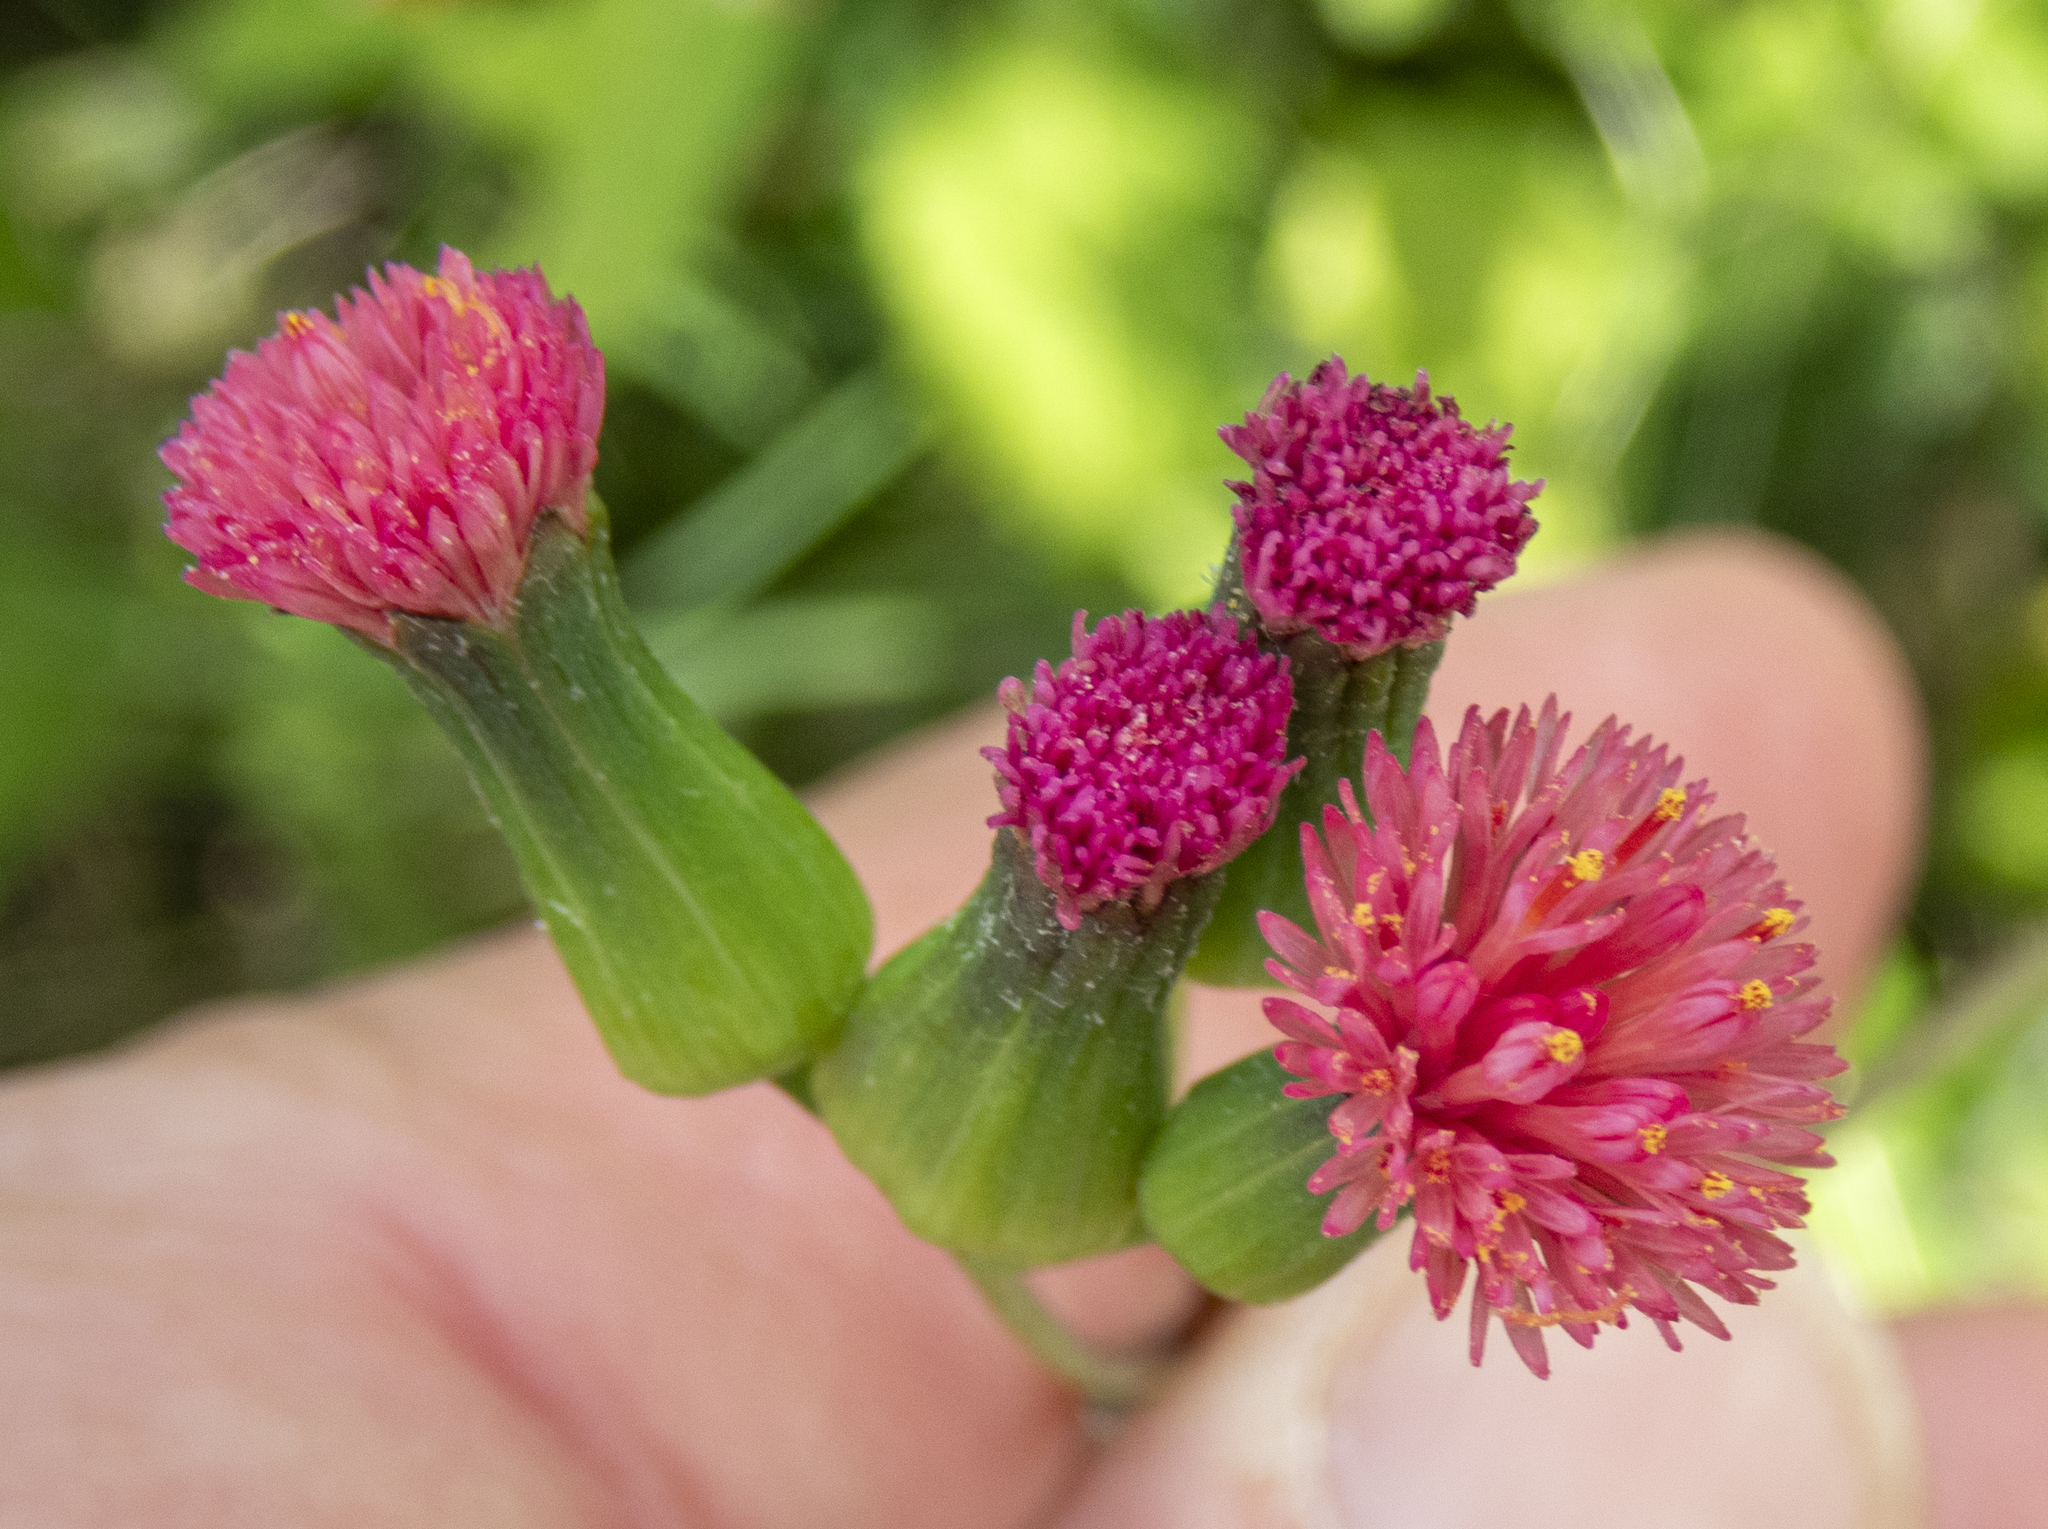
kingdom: Plantae
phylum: Tracheophyta
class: Magnoliopsida
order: Asterales
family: Asteraceae
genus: Emilia
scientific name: Emilia fosbergii
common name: Florida tasselflower
